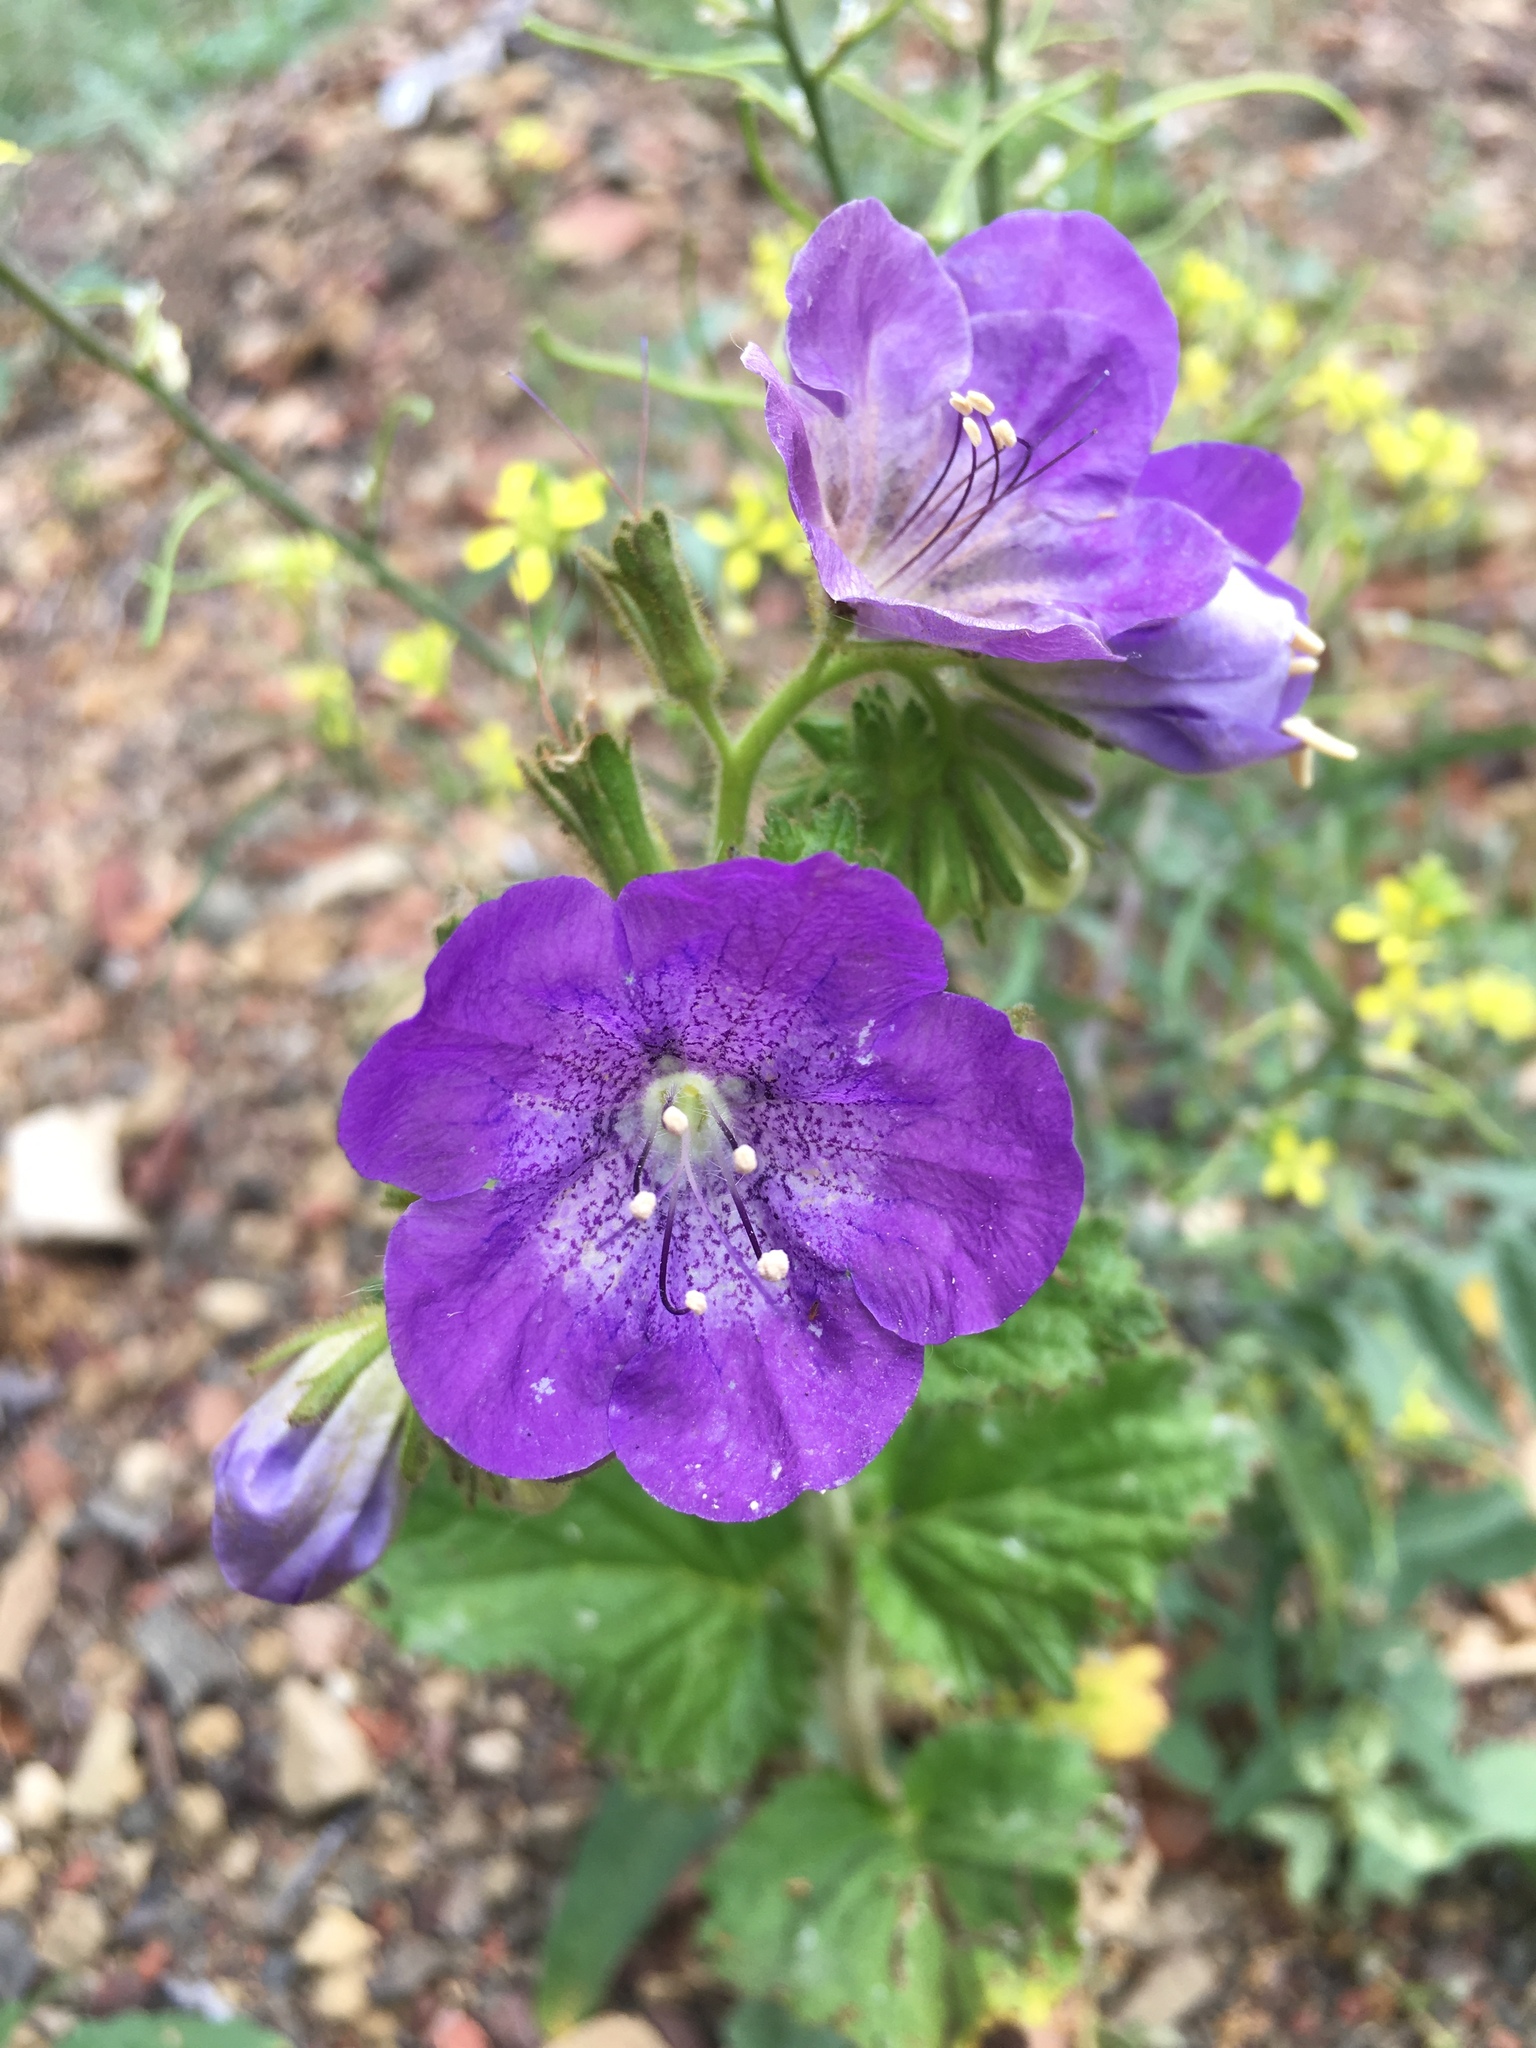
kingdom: Plantae
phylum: Tracheophyta
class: Magnoliopsida
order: Boraginales
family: Hydrophyllaceae
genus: Phacelia
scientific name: Phacelia grandiflora
